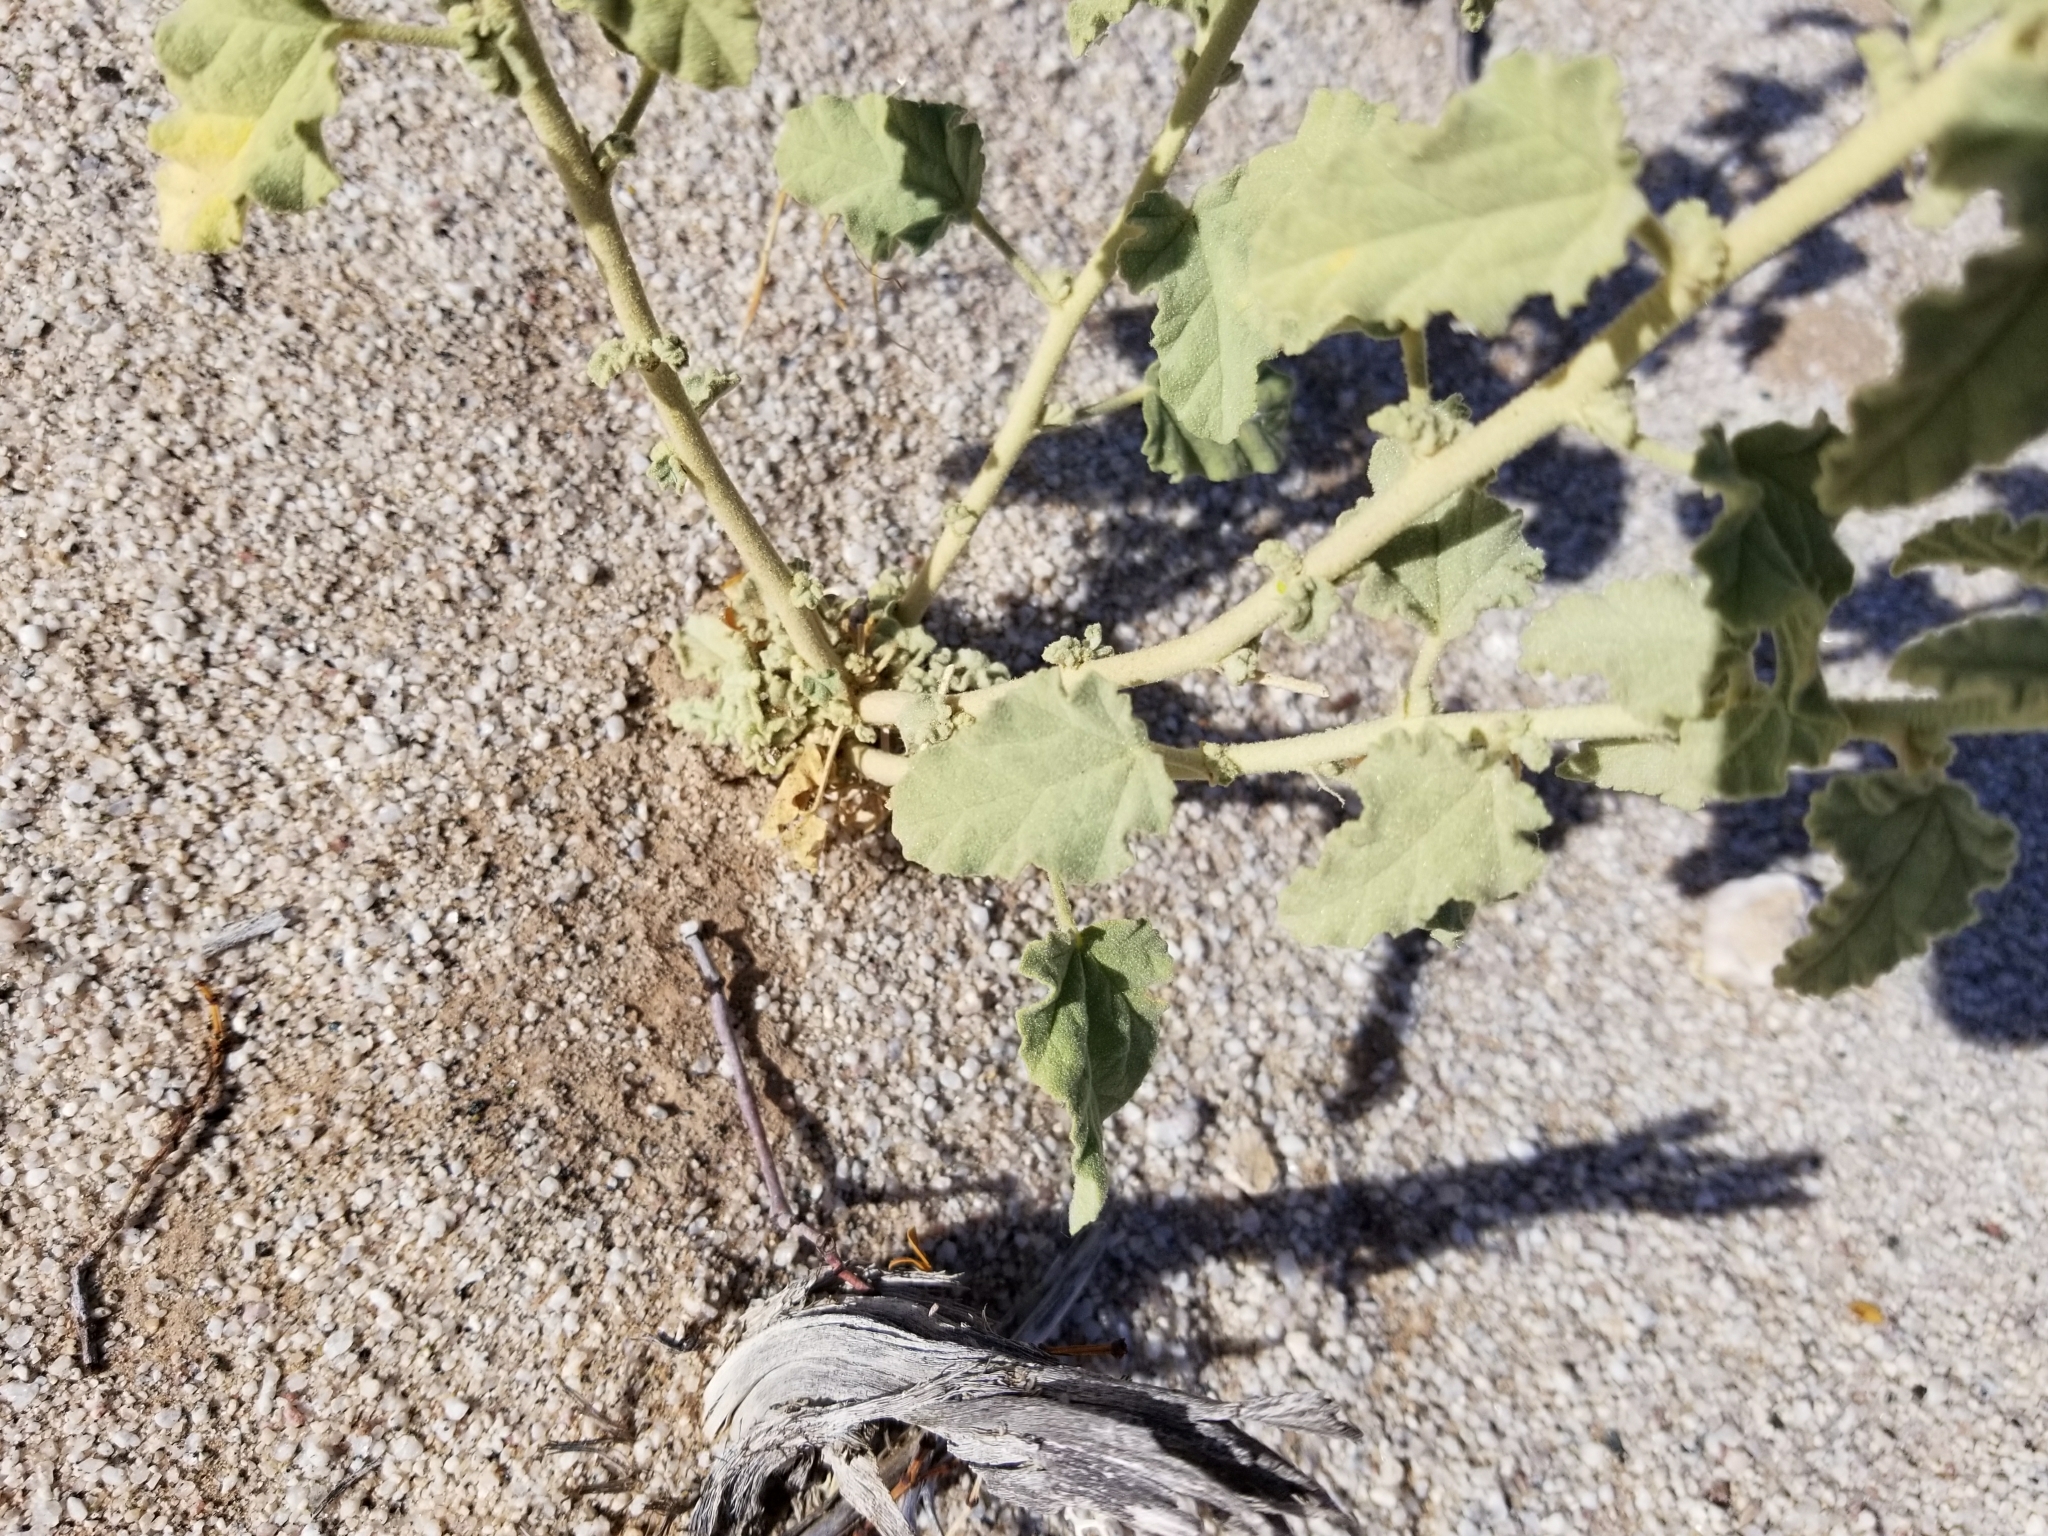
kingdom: Plantae
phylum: Tracheophyta
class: Magnoliopsida
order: Malvales
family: Malvaceae
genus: Sphaeralcea
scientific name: Sphaeralcea ambigua
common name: Apricot globe-mallow
